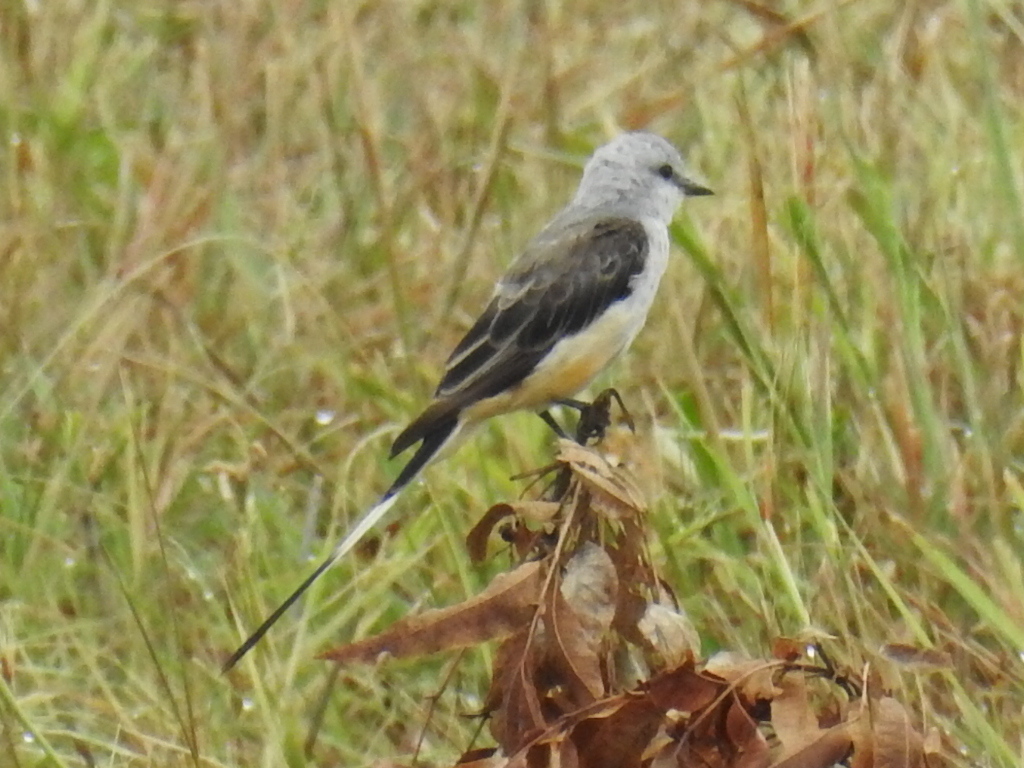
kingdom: Animalia
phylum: Chordata
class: Aves
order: Passeriformes
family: Tyrannidae
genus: Tyrannus
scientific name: Tyrannus forficatus
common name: Scissor-tailed flycatcher
